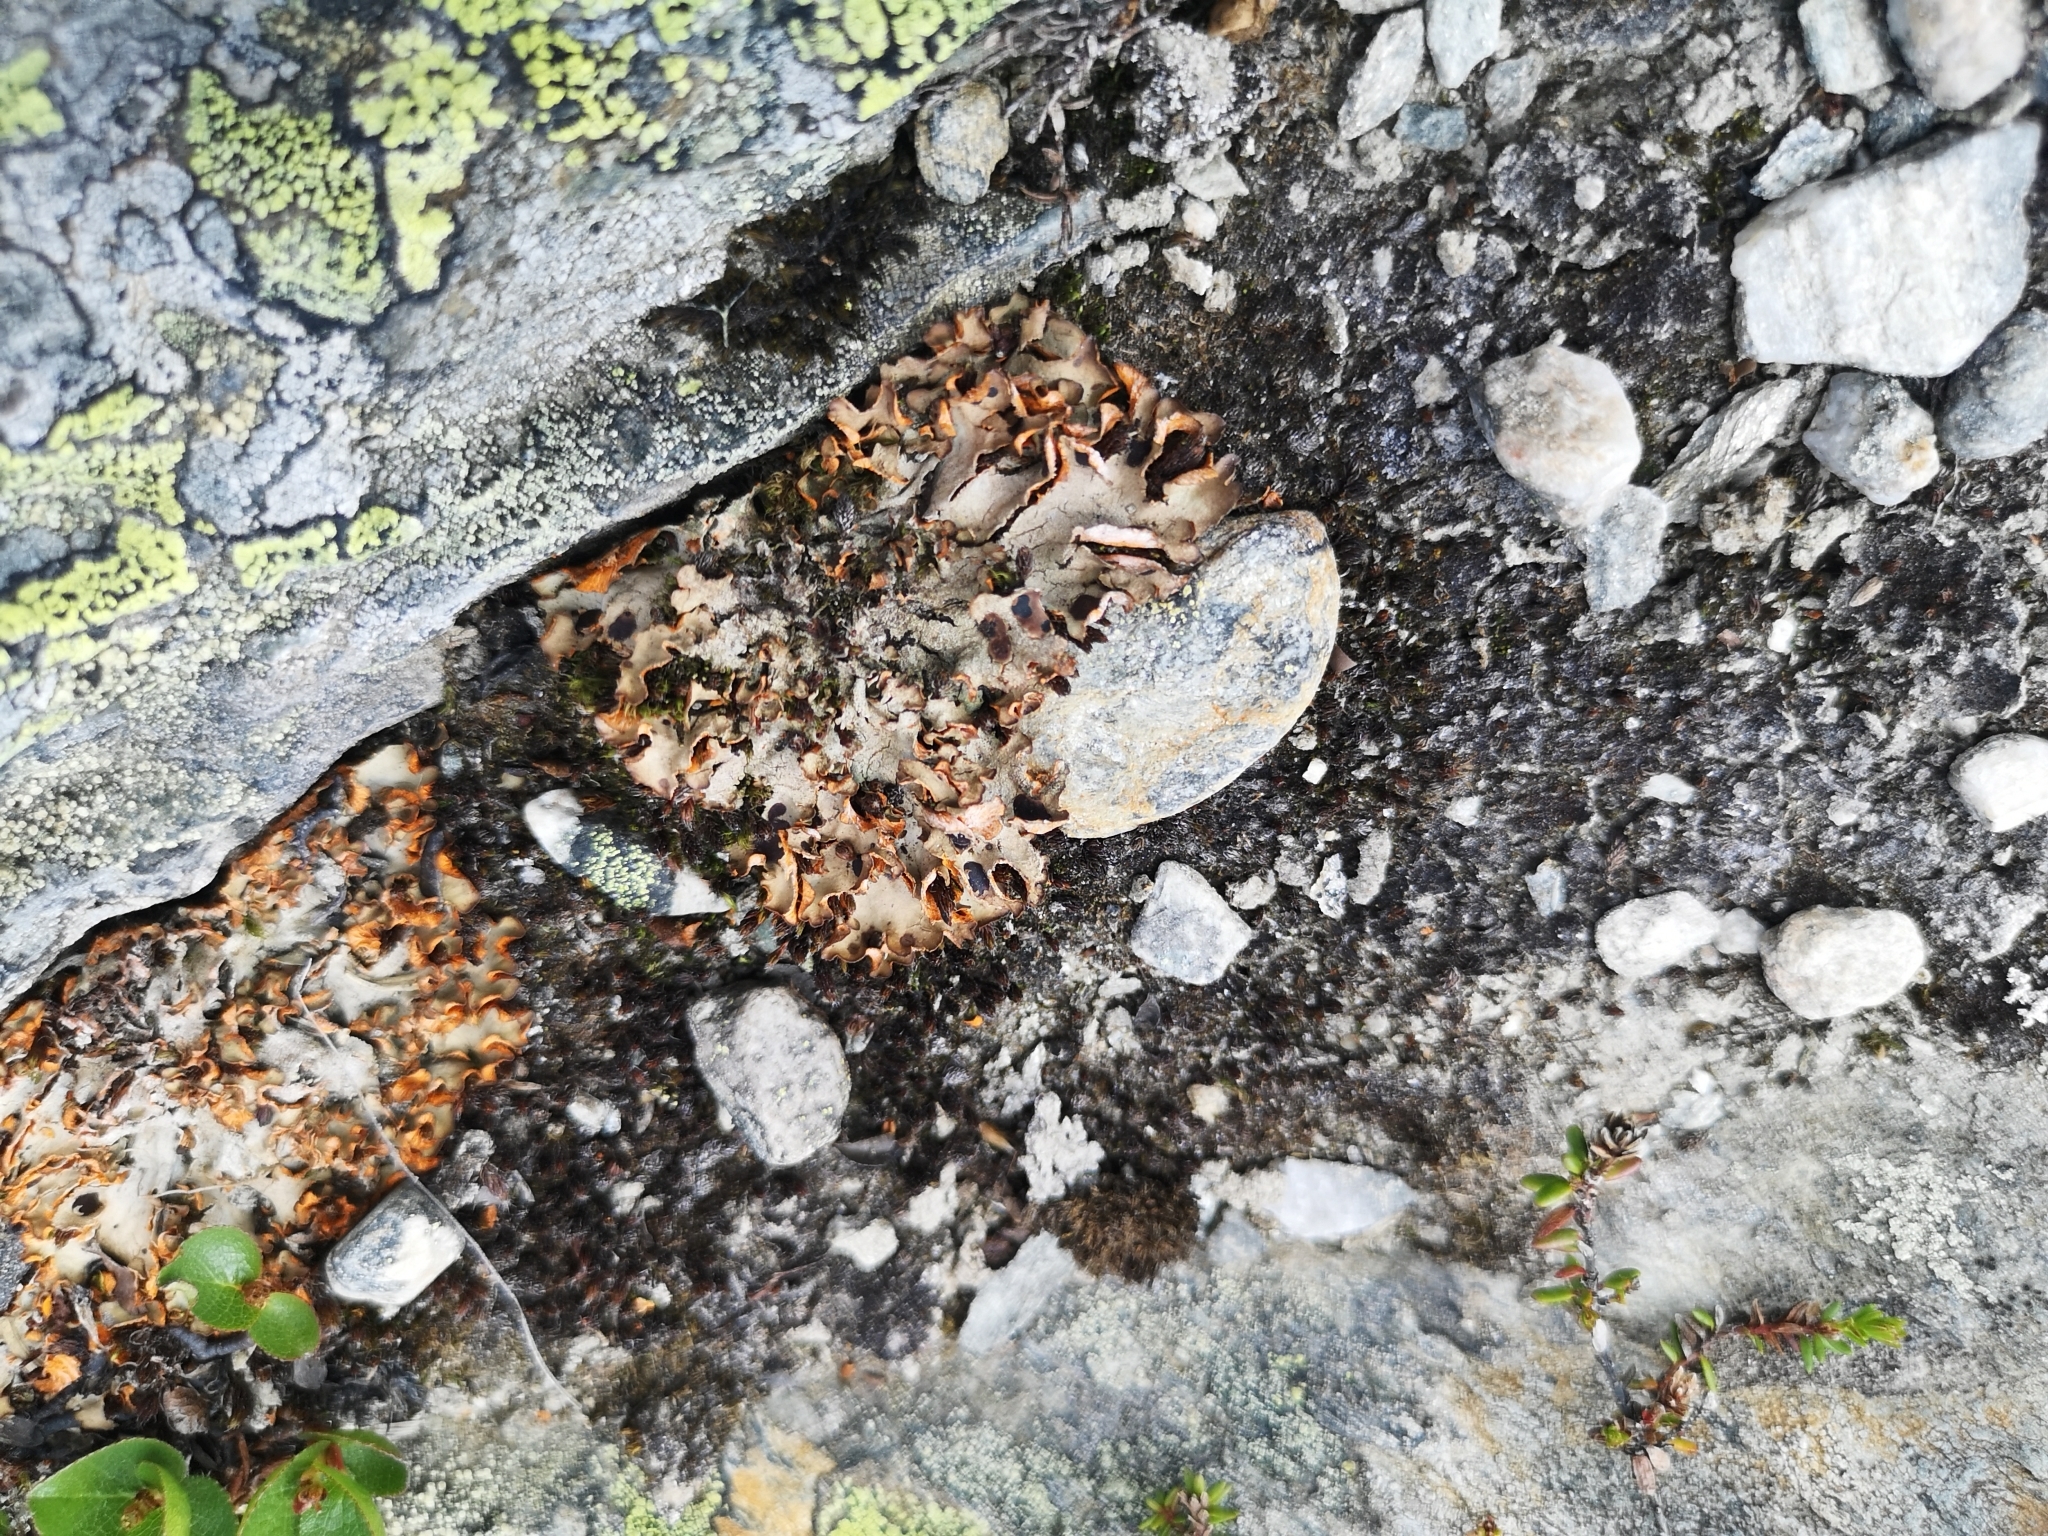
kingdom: Fungi
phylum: Ascomycota
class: Lecanoromycetes
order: Peltigerales
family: Peltigeraceae
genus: Solorina
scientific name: Solorina crocea
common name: Mountain saffron
